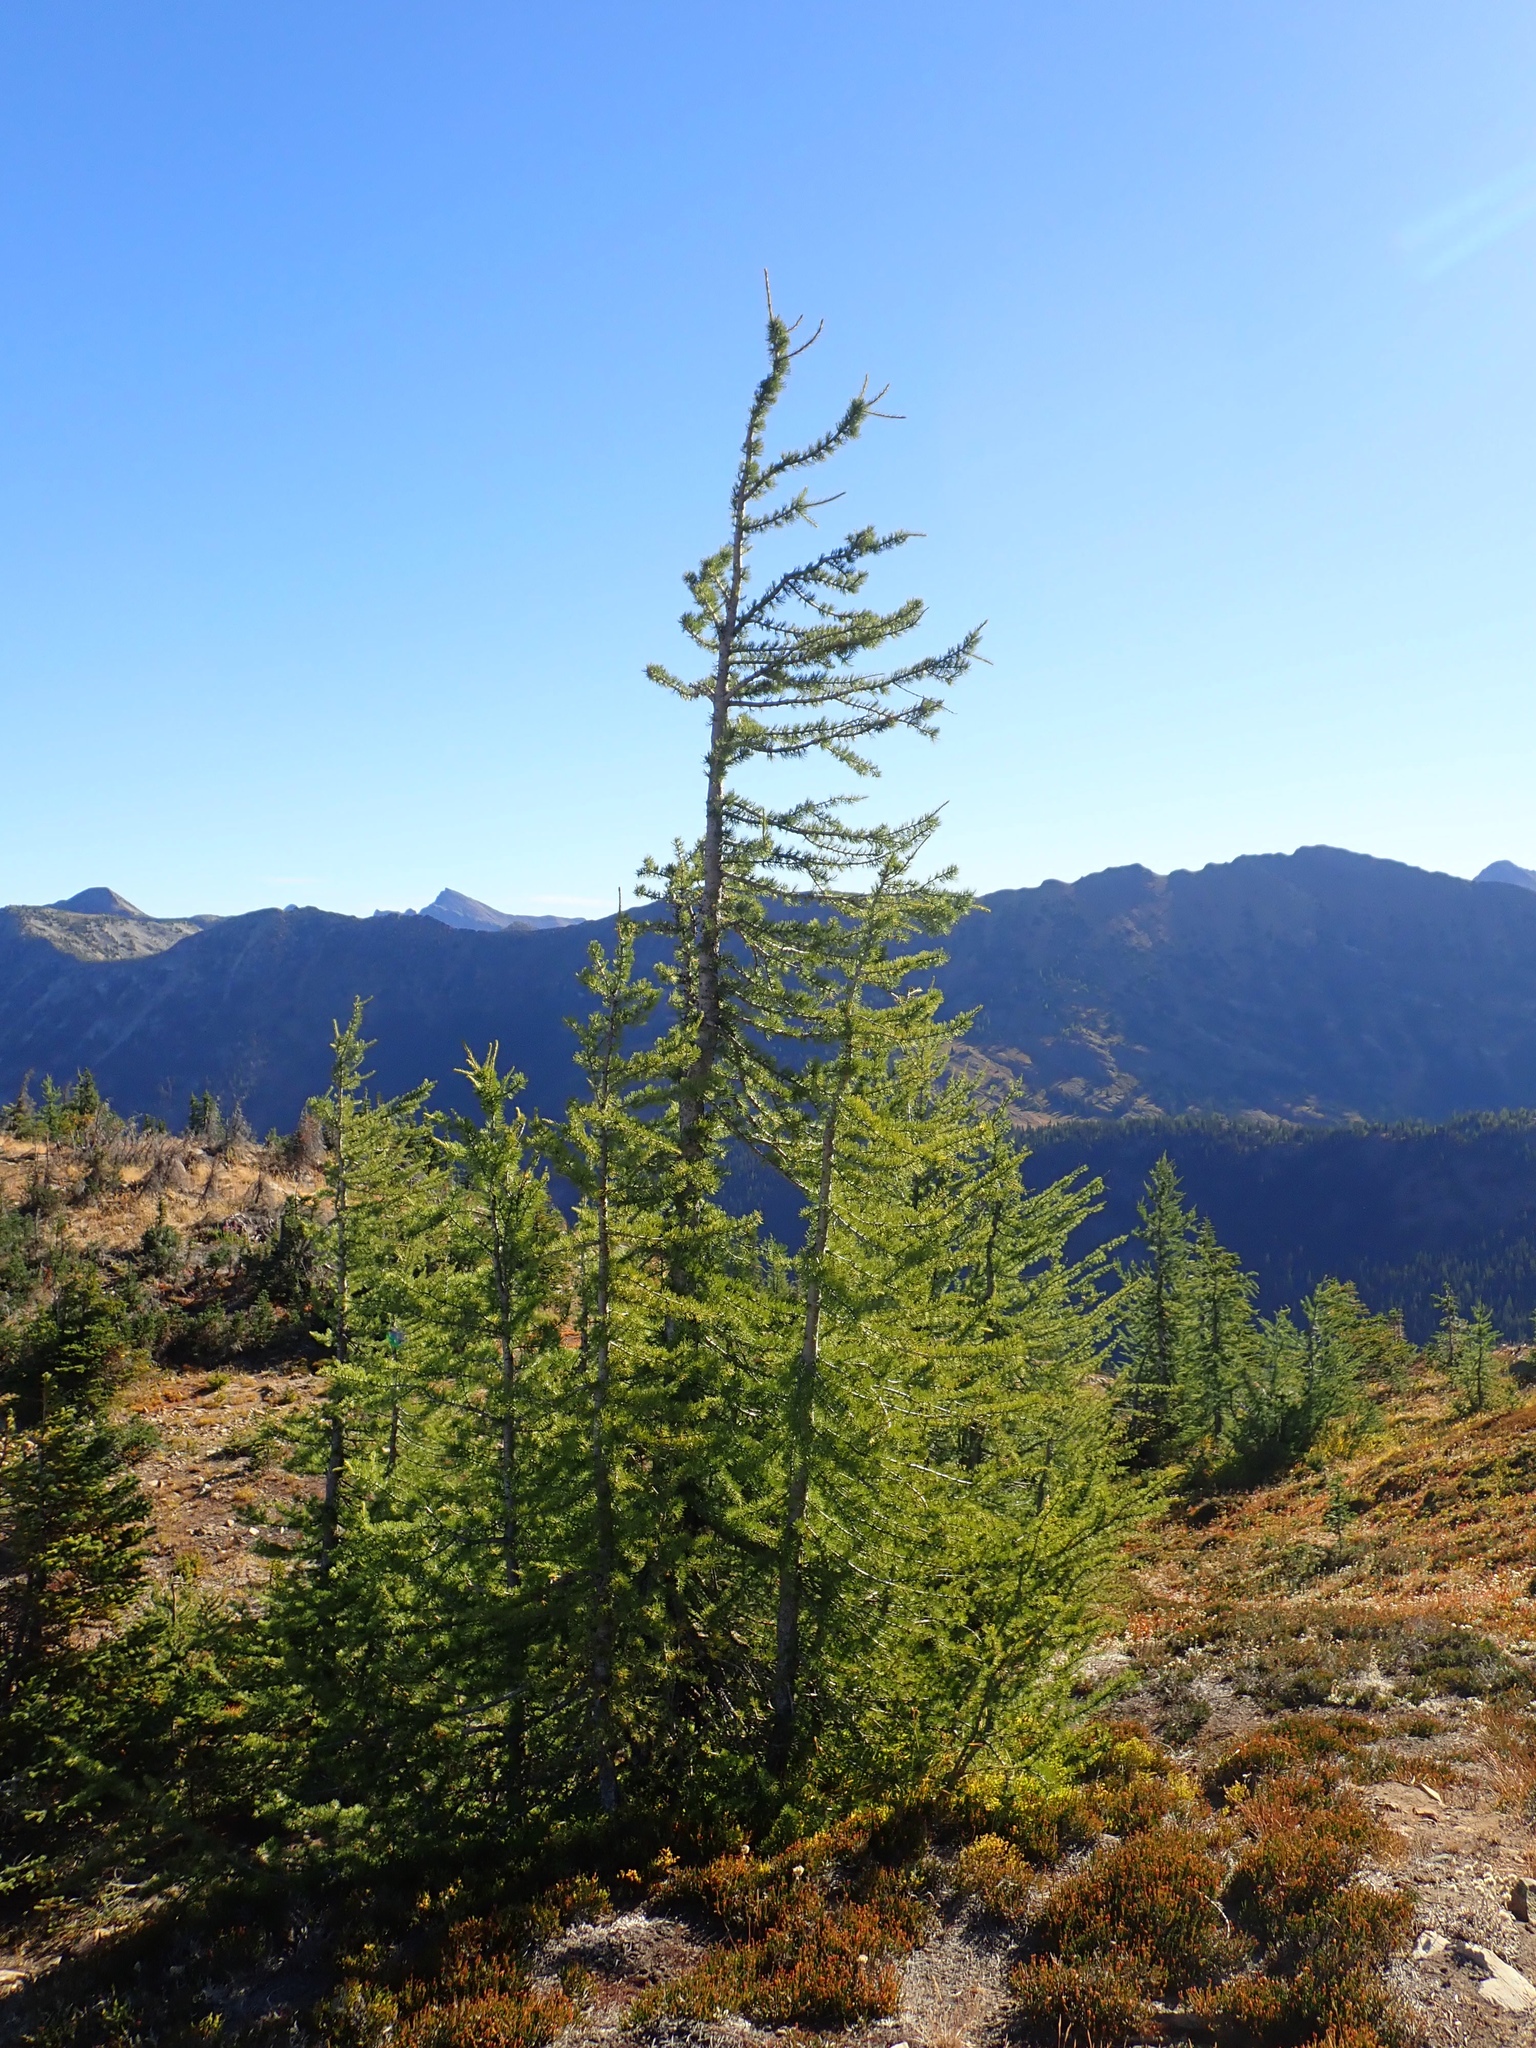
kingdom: Plantae
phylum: Tracheophyta
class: Pinopsida
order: Pinales
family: Pinaceae
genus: Larix
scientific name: Larix lyallii
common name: Alpine larch
